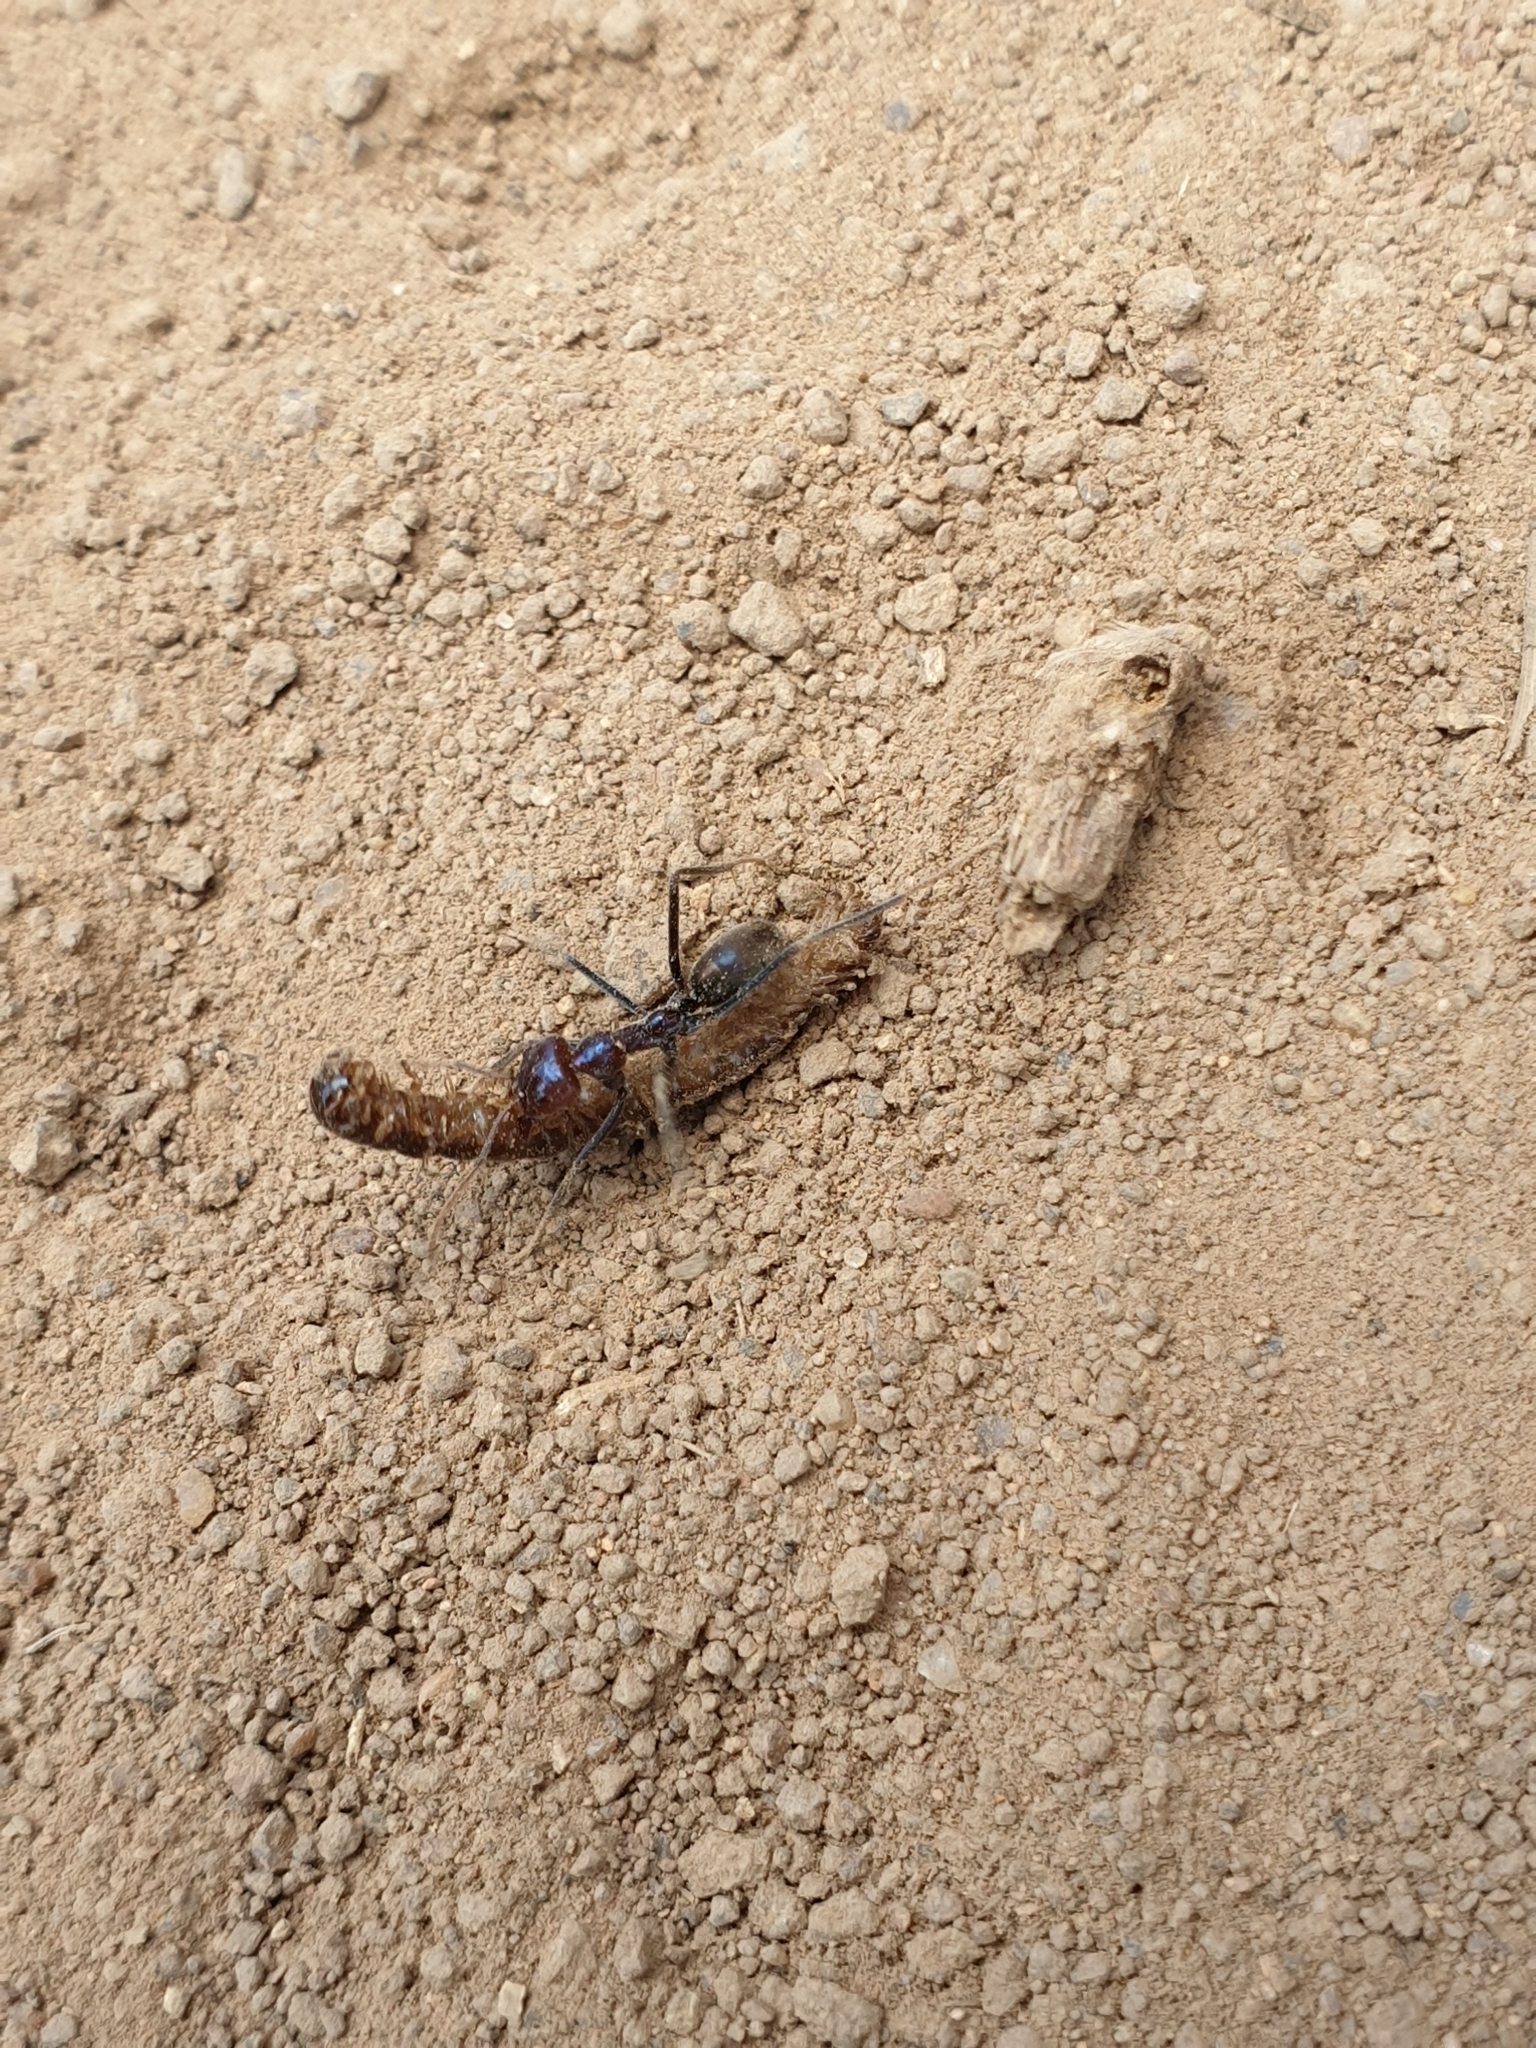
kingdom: Animalia
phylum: Arthropoda
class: Insecta
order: Hymenoptera
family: Formicidae
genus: Iridomyrmex
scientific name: Iridomyrmex purpureus
